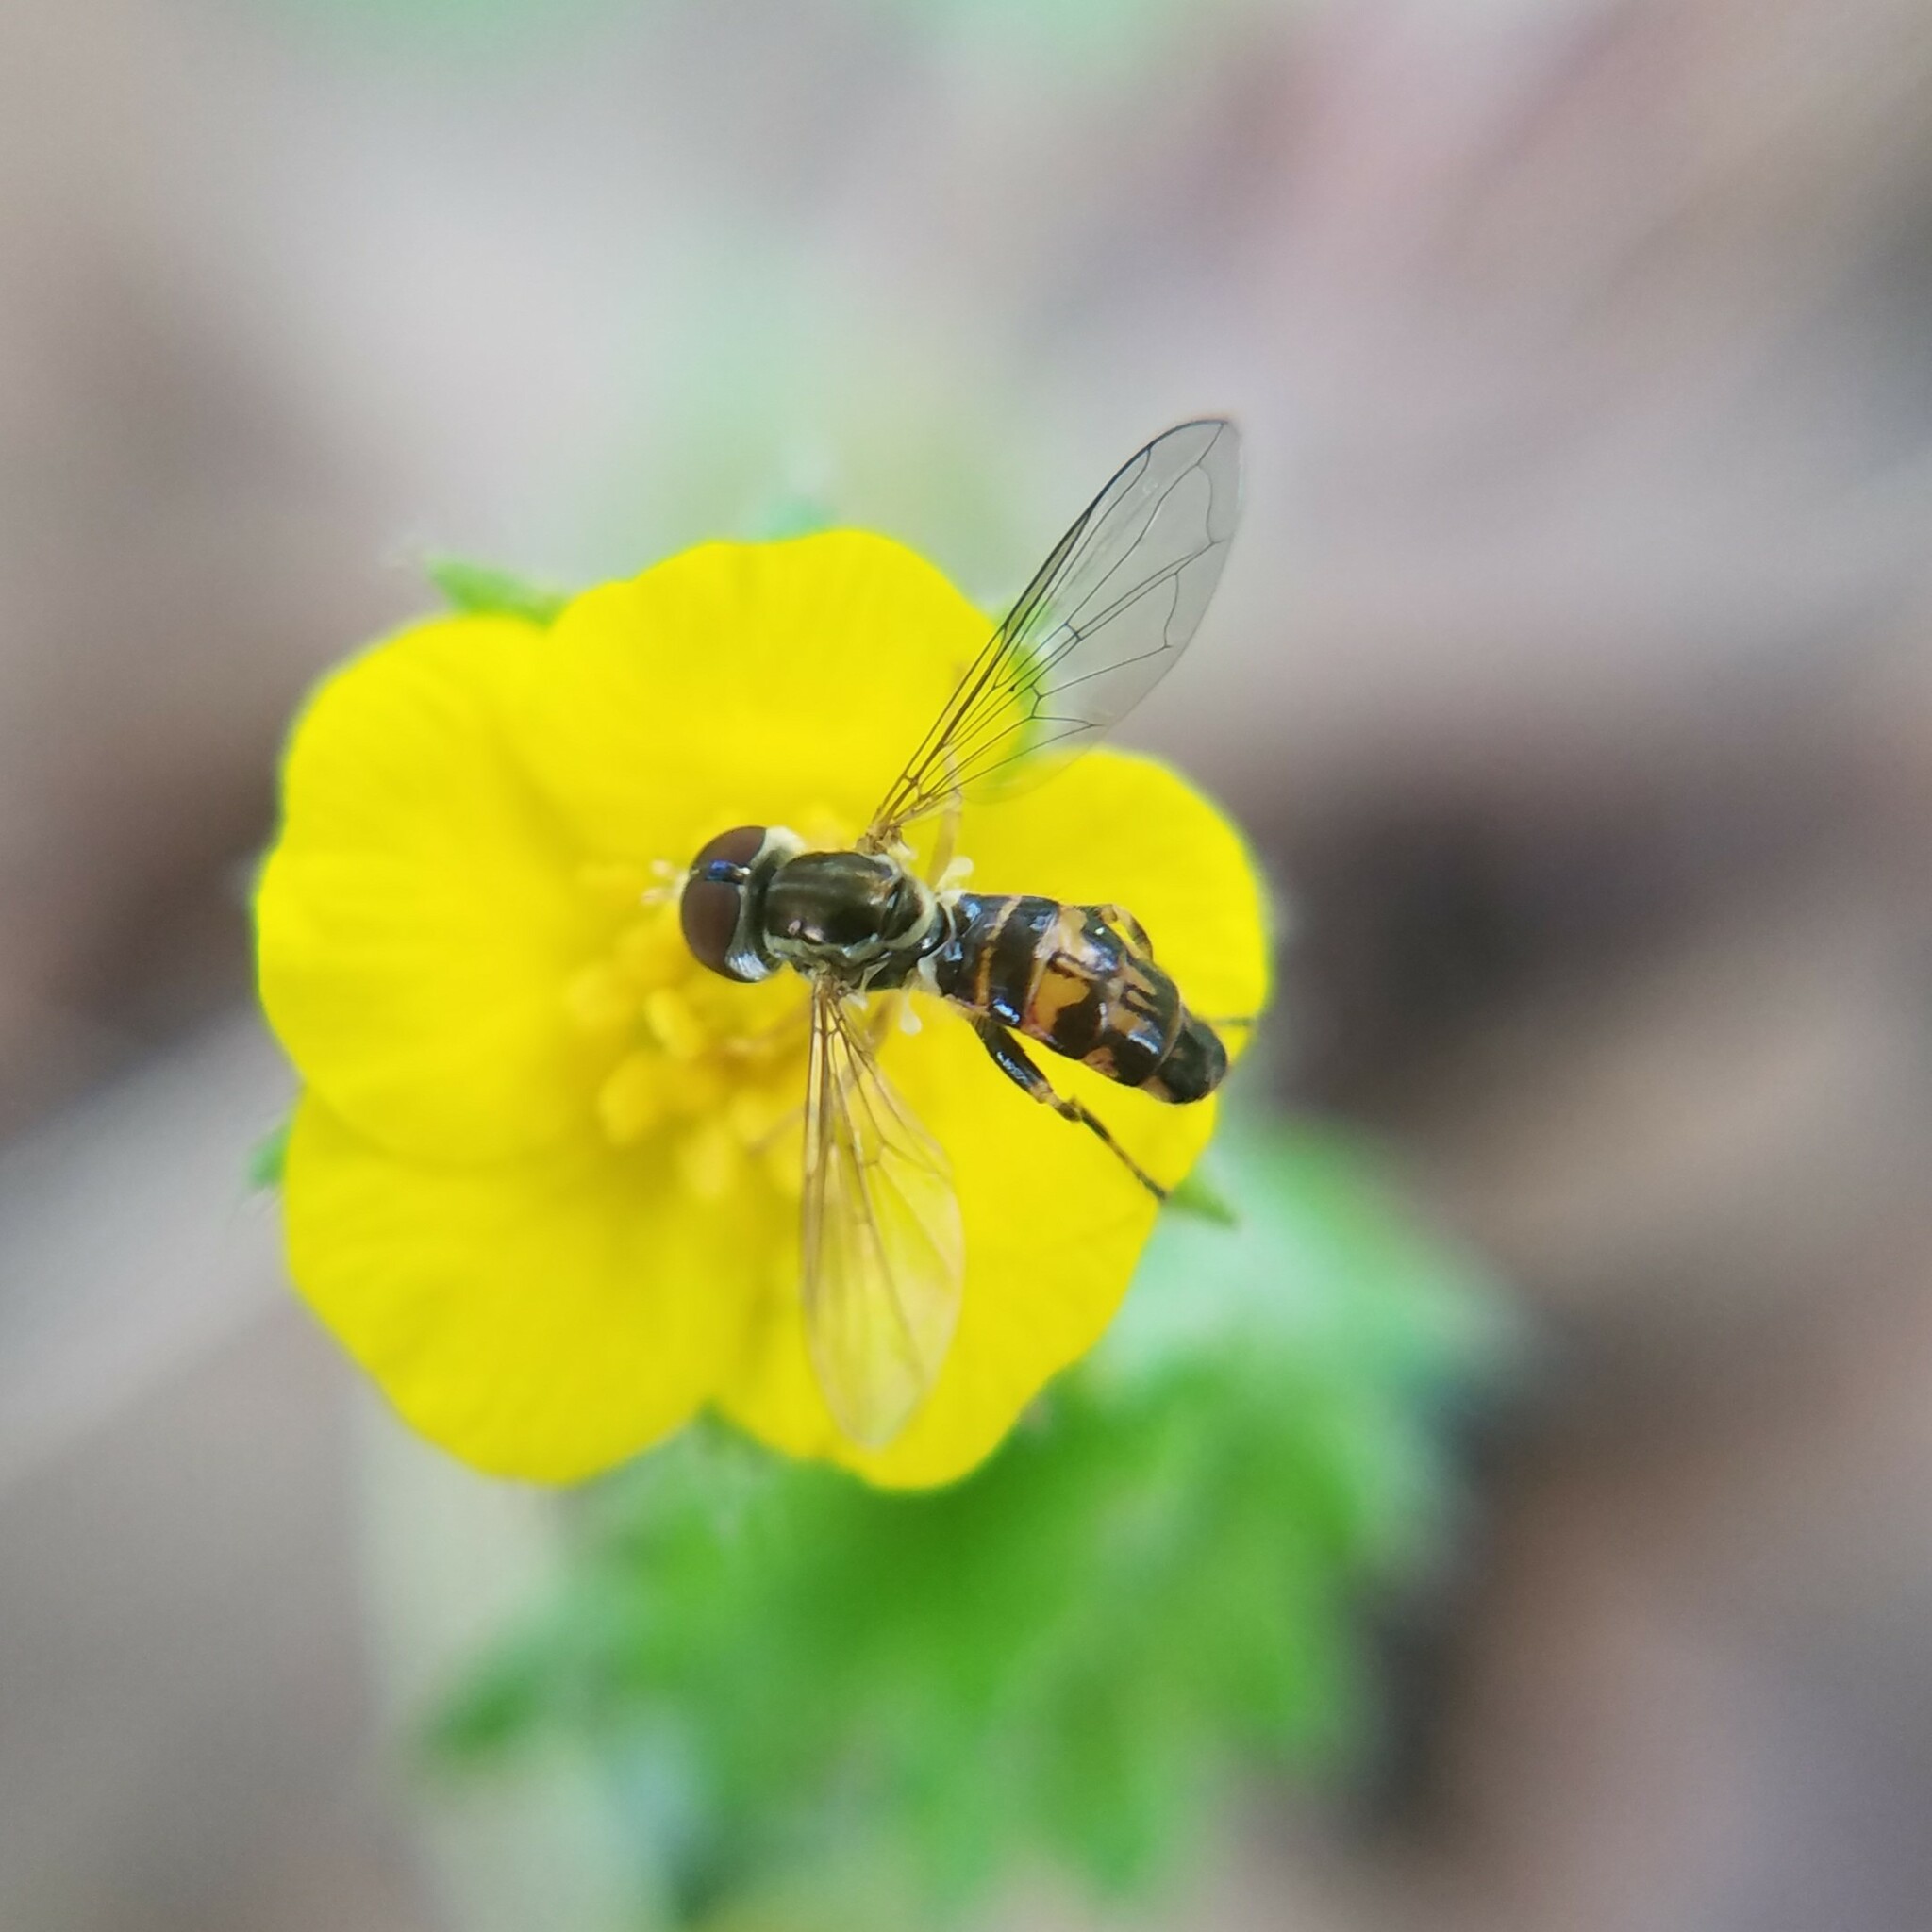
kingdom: Animalia
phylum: Arthropoda
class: Insecta
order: Diptera
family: Syrphidae
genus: Toxomerus
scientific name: Toxomerus geminatus
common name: Eastern calligrapher
